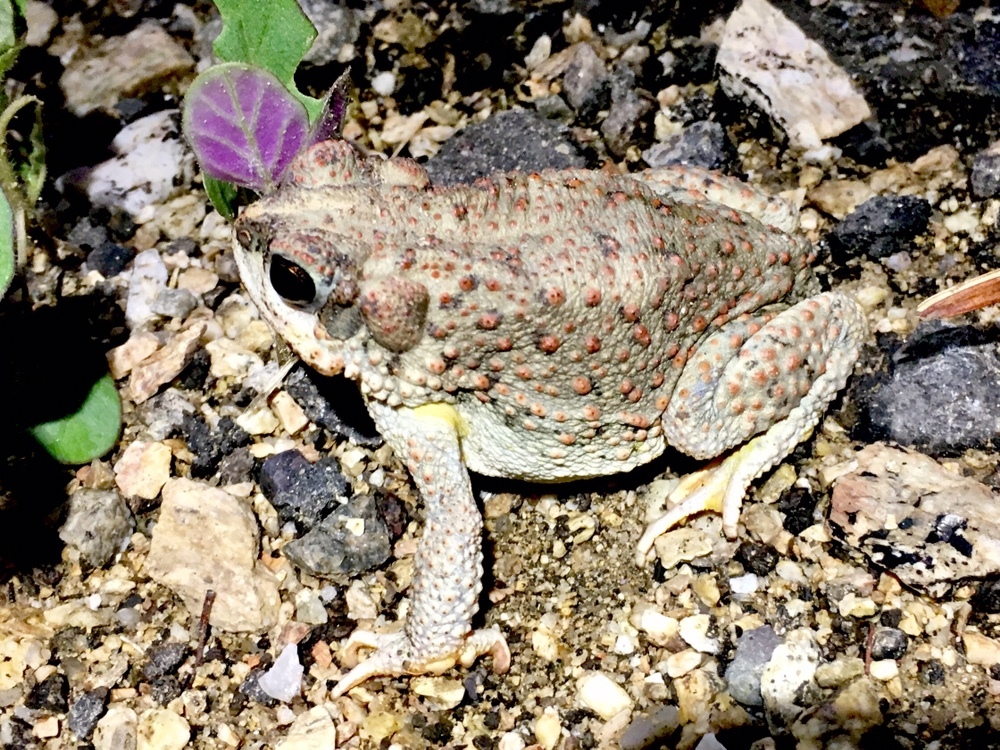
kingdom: Animalia
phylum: Chordata
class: Amphibia
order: Anura
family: Bufonidae
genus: Anaxyrus
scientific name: Anaxyrus punctatus
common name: Red-spotted toad
